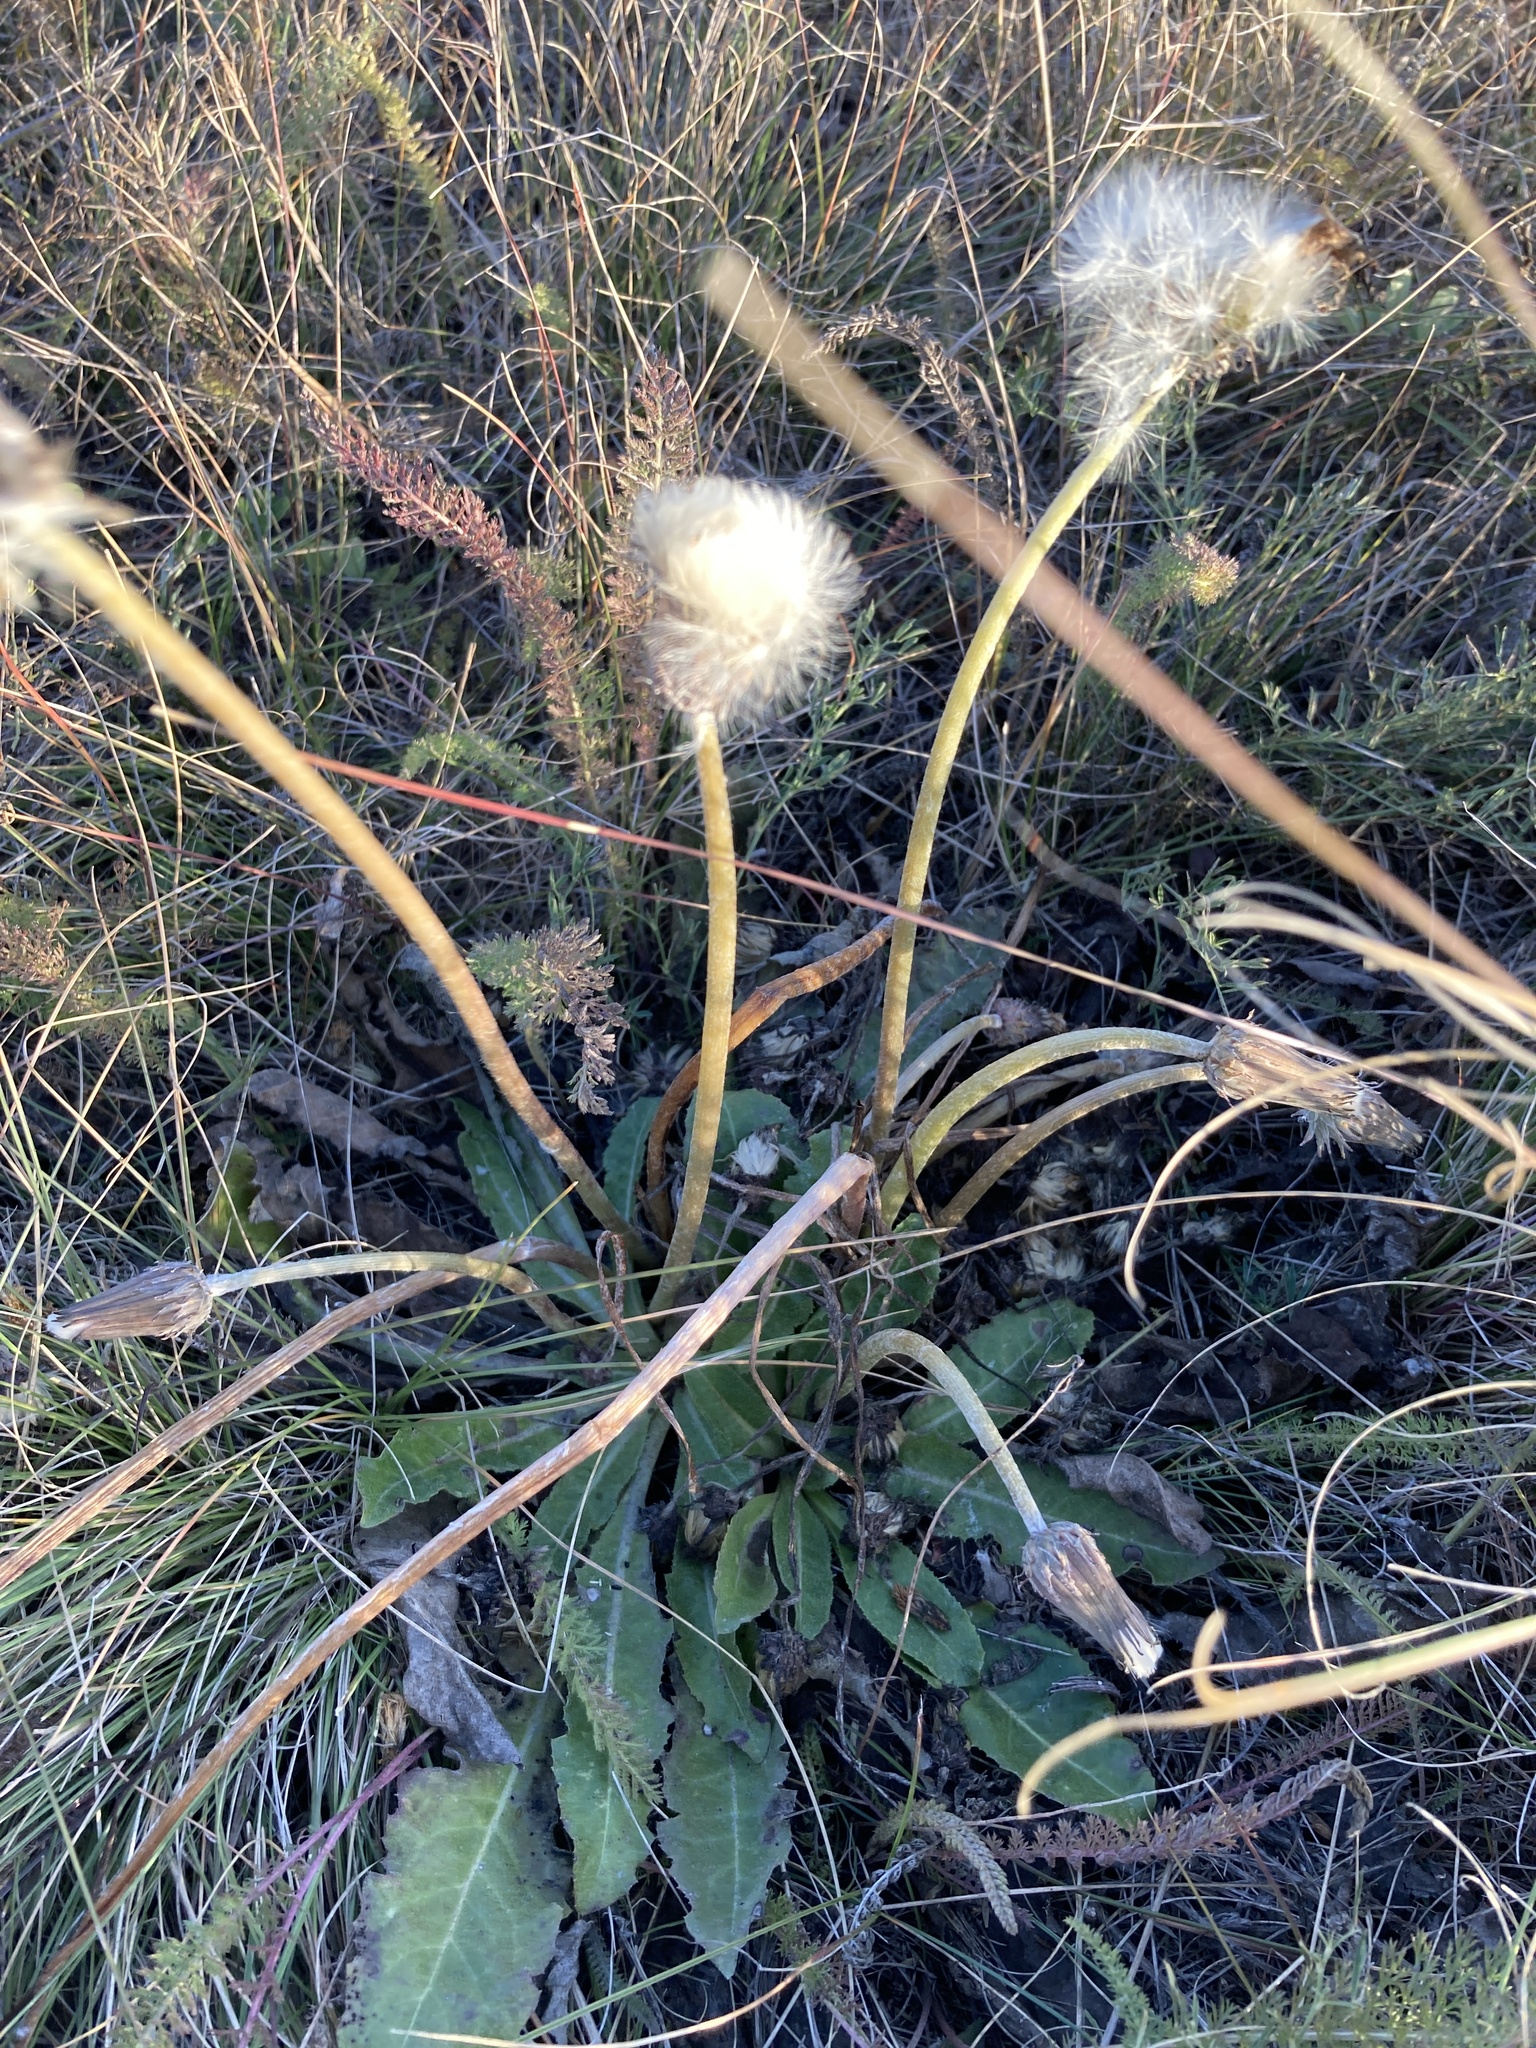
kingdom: Plantae
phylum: Tracheophyta
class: Magnoliopsida
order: Asterales
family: Asteraceae
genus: Taraxacum
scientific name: Taraxacum serotinum
